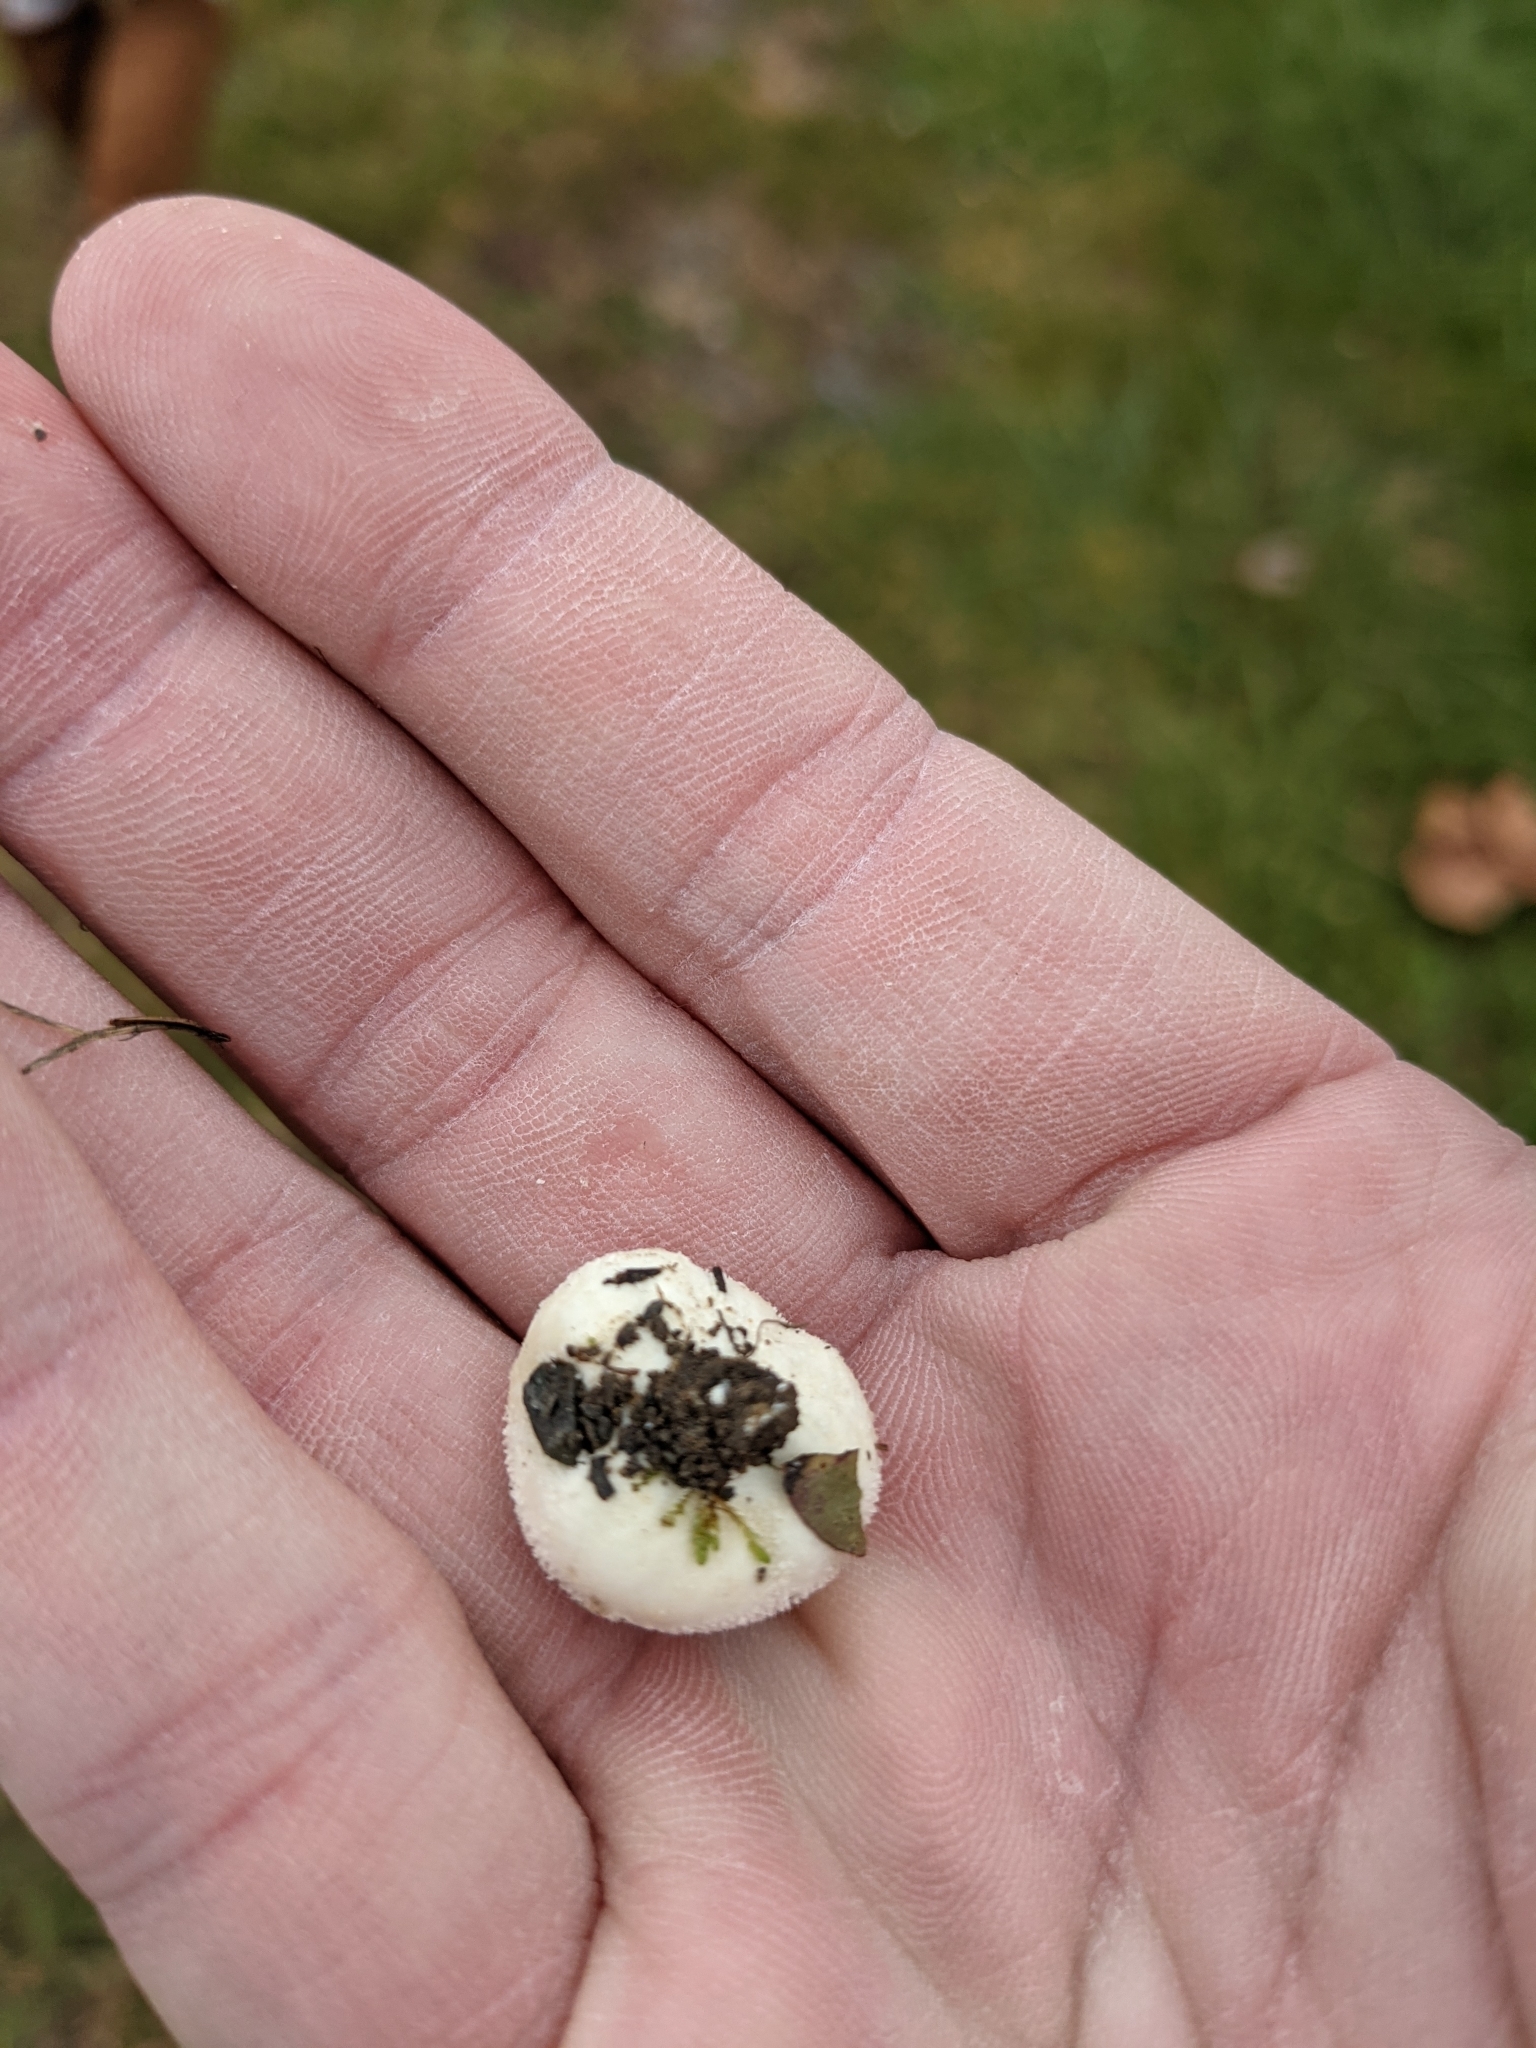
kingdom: Fungi
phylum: Basidiomycota
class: Agaricomycetes
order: Agaricales
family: Agaricaceae
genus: Lycoperdon
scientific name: Lycoperdon marginatum
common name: Peeling puffball
